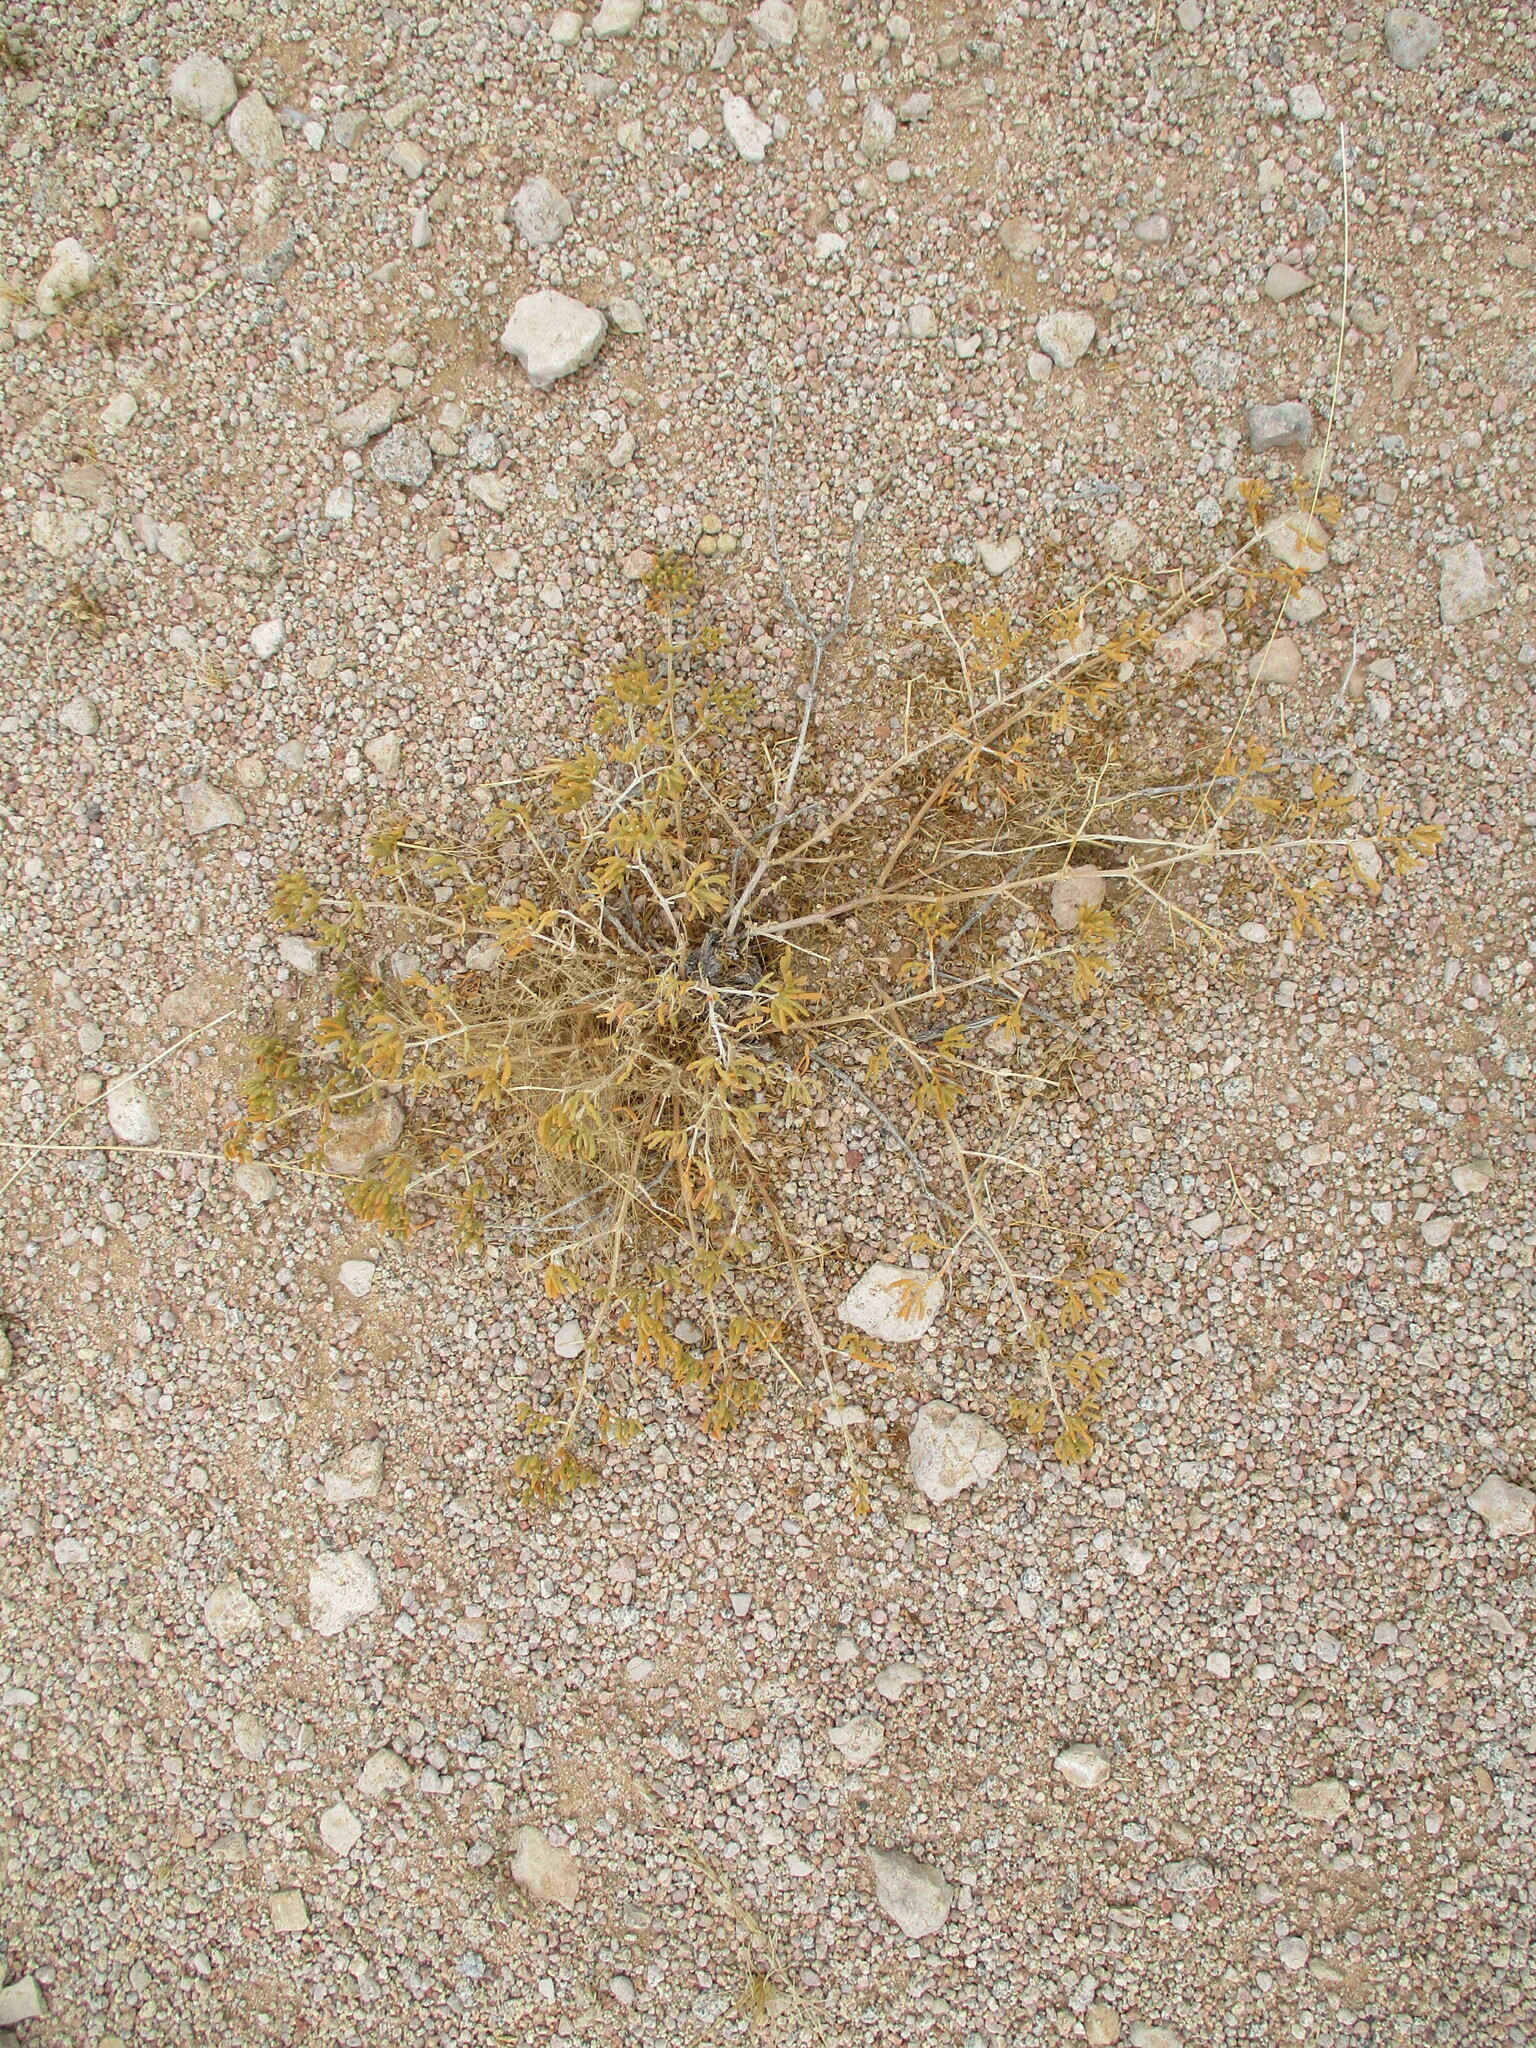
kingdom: Plantae
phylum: Tracheophyta
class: Magnoliopsida
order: Zygophyllales
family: Zygophyllaceae
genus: Tetraena
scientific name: Tetraena cylindrifolia
